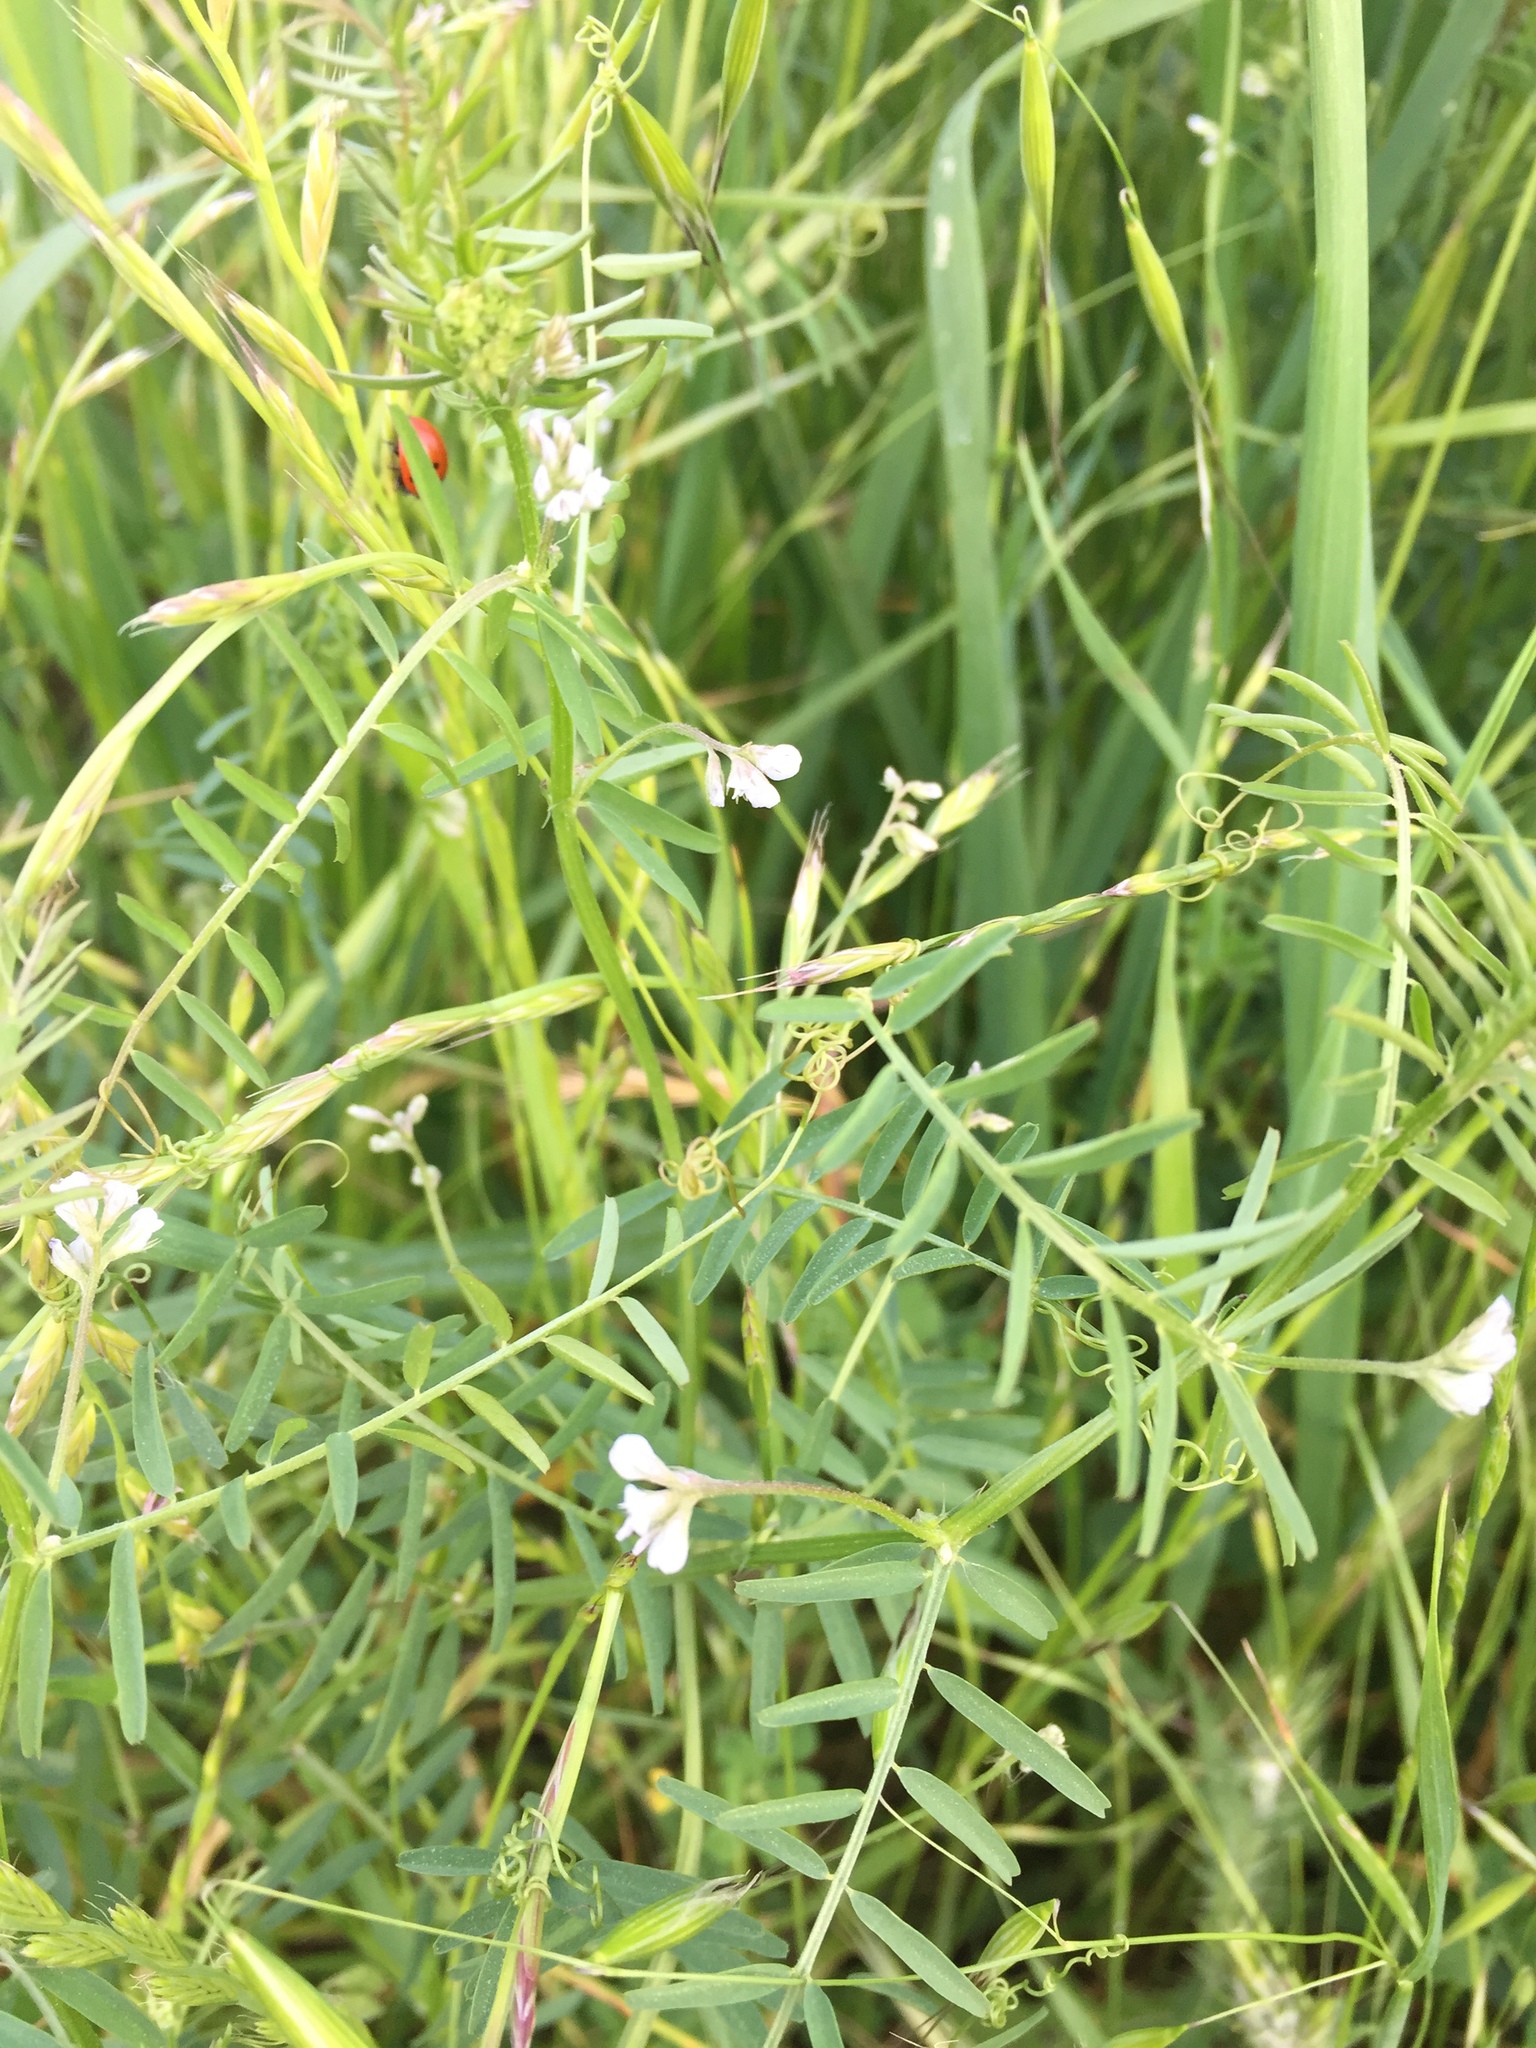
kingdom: Plantae
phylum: Tracheophyta
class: Magnoliopsida
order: Fabales
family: Fabaceae
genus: Vicia
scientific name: Vicia hirsuta
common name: Tiny vetch
